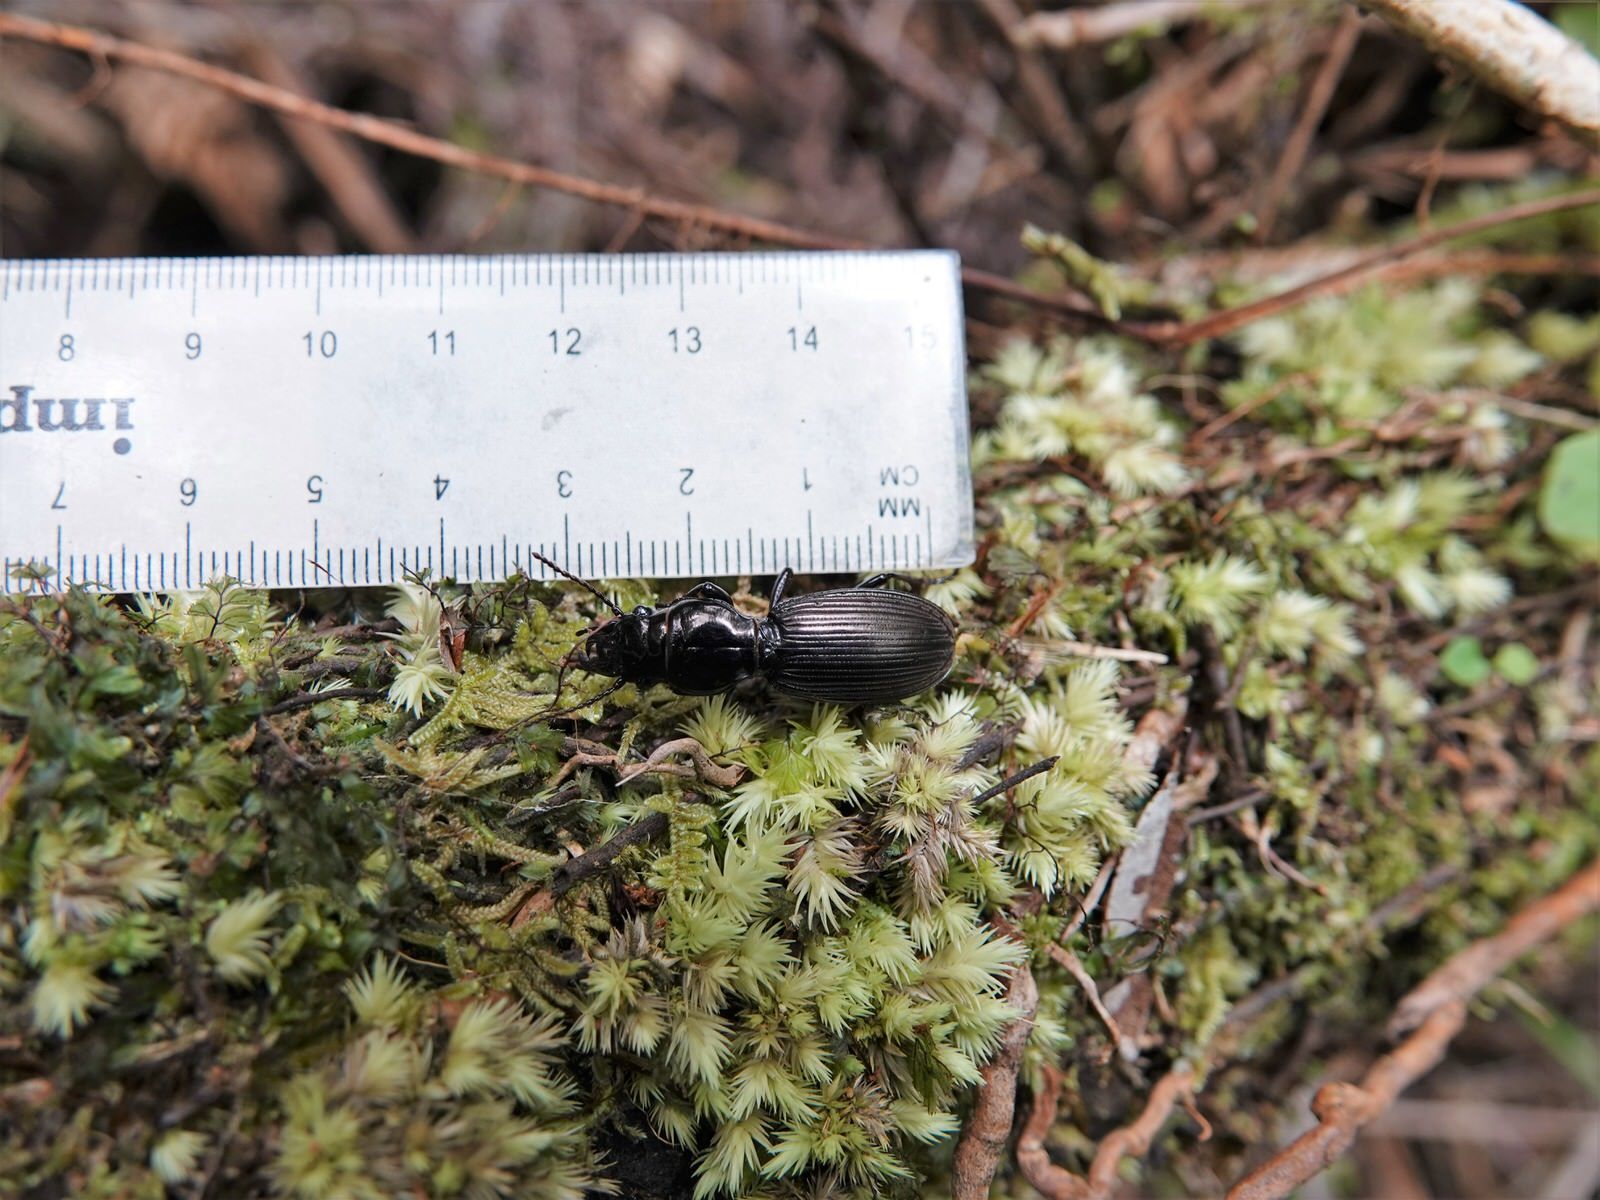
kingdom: Animalia
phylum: Arthropoda
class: Insecta
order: Coleoptera
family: Carabidae
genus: Mecodema
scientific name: Mecodema spiniferum
